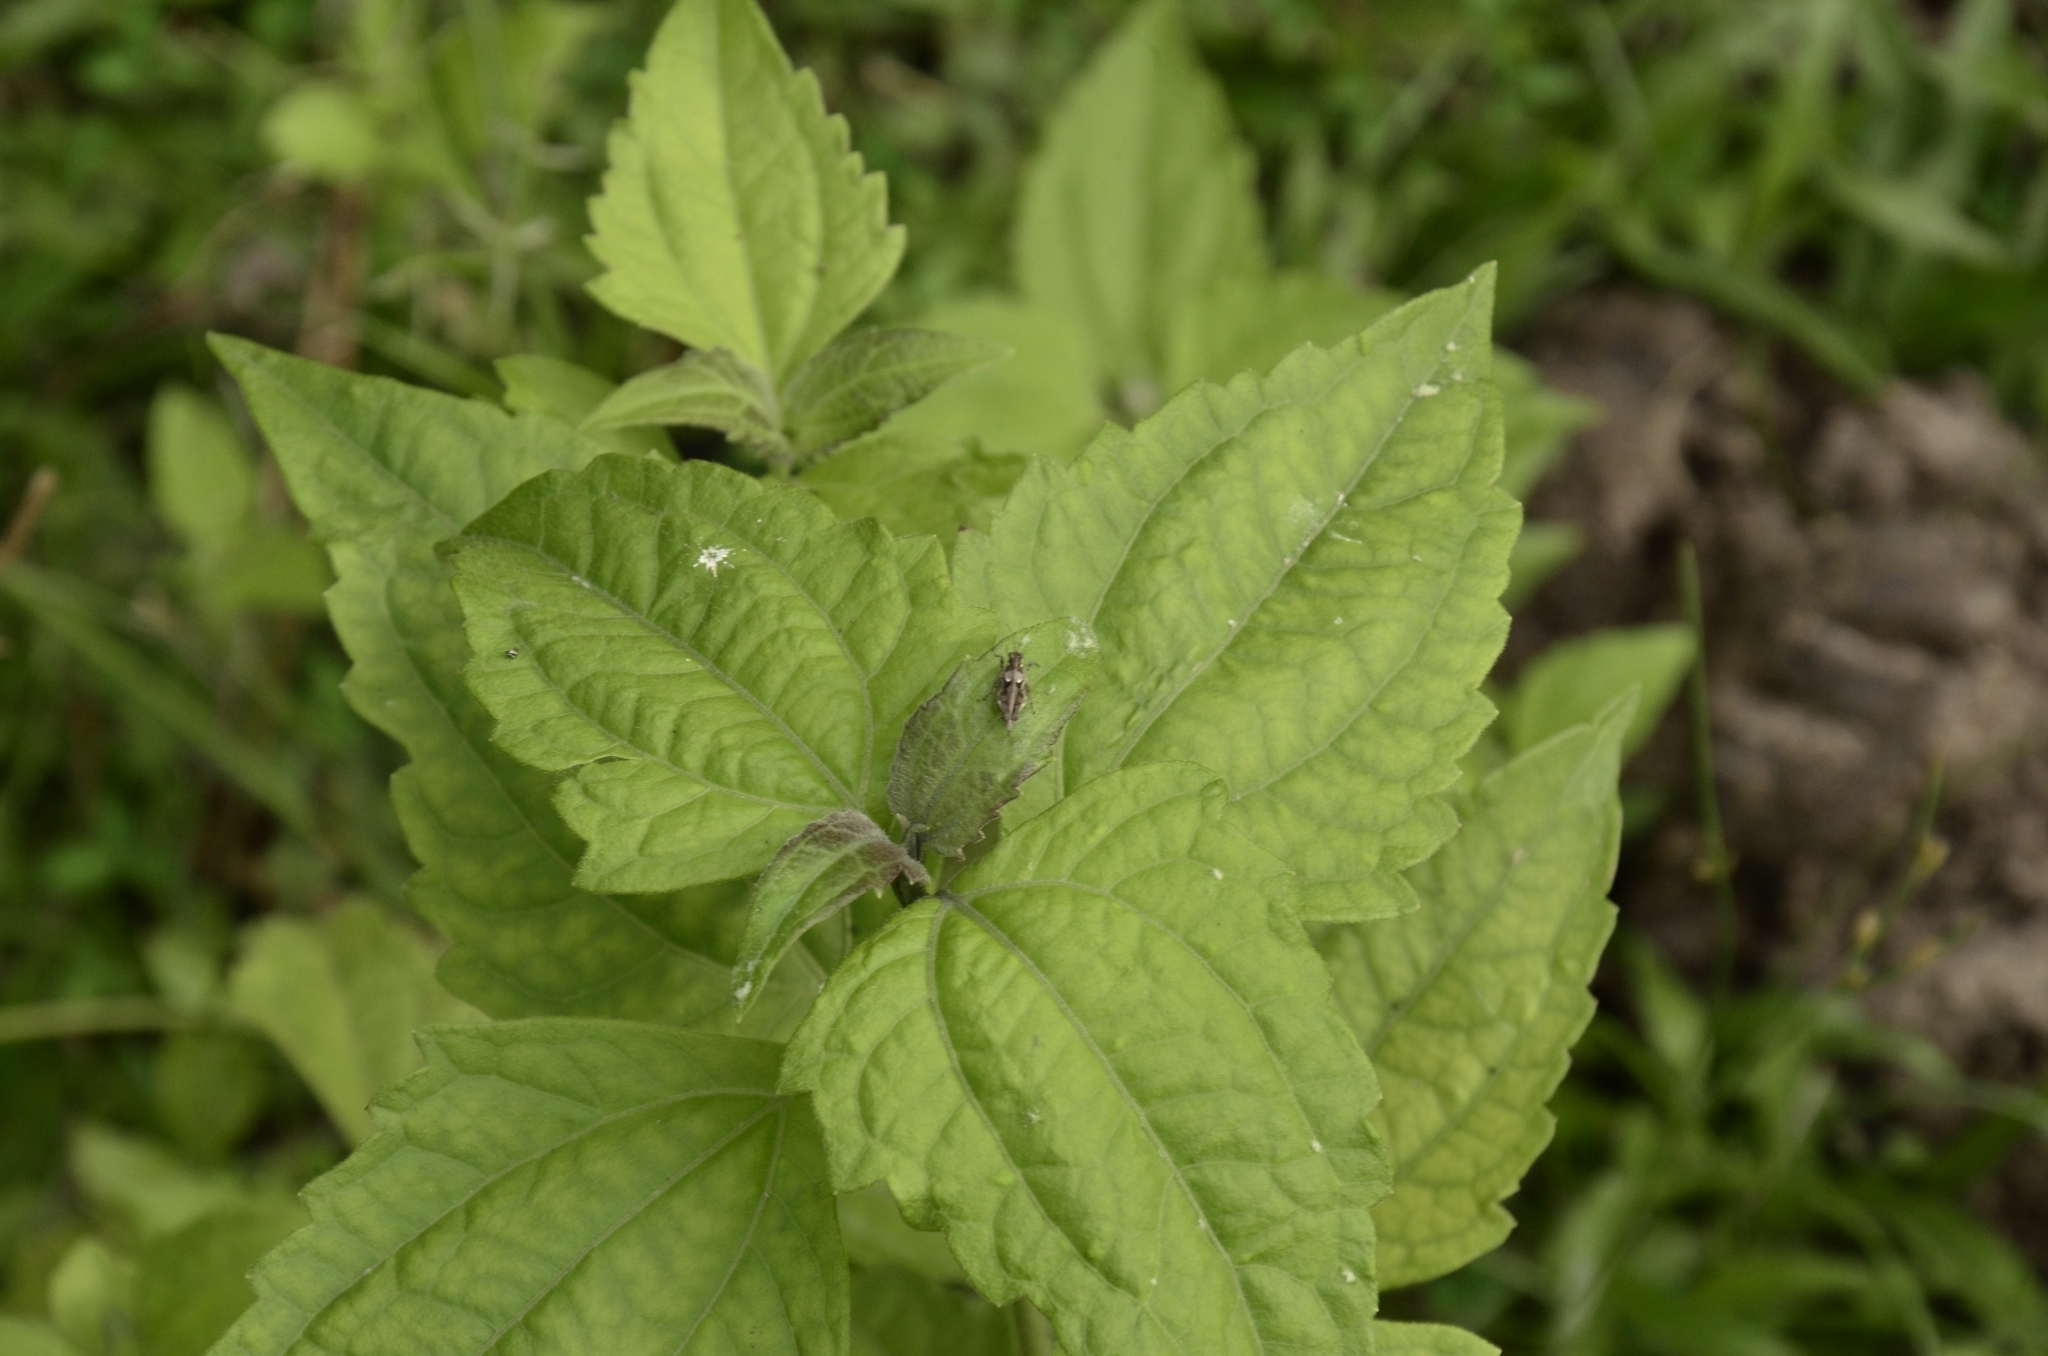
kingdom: Plantae
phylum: Tracheophyta
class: Magnoliopsida
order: Asterales
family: Asteraceae
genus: Chromolaena
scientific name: Chromolaena odorata
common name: Siamweed
